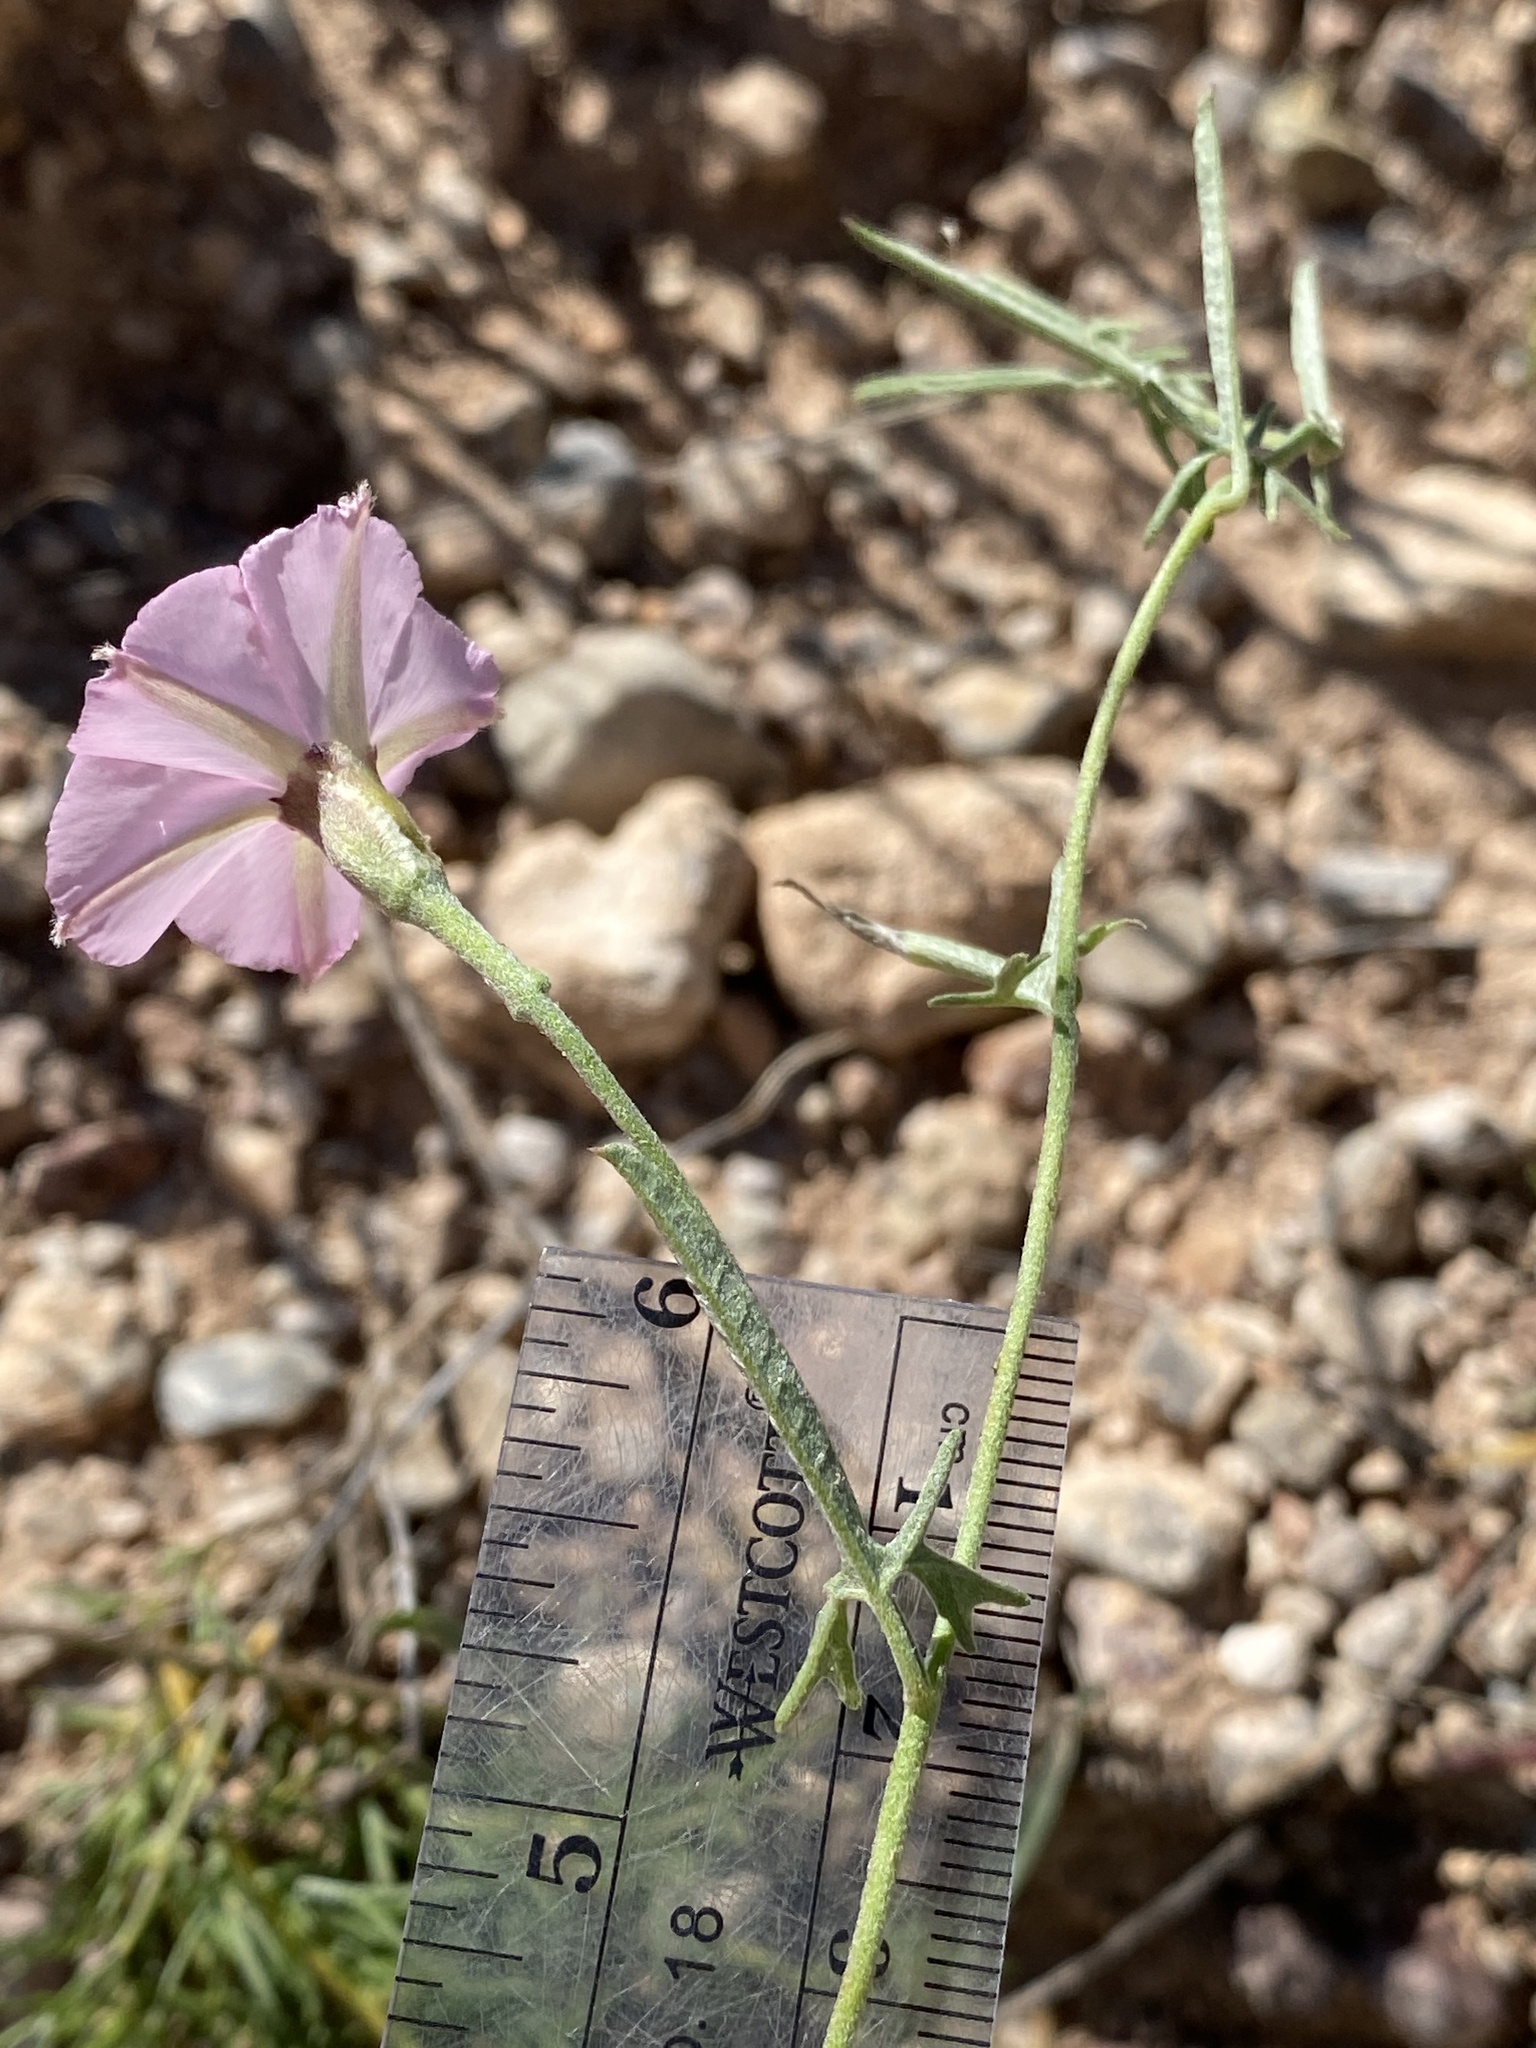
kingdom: Plantae
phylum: Tracheophyta
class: Magnoliopsida
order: Solanales
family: Convolvulaceae
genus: Convolvulus
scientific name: Convolvulus equitans
